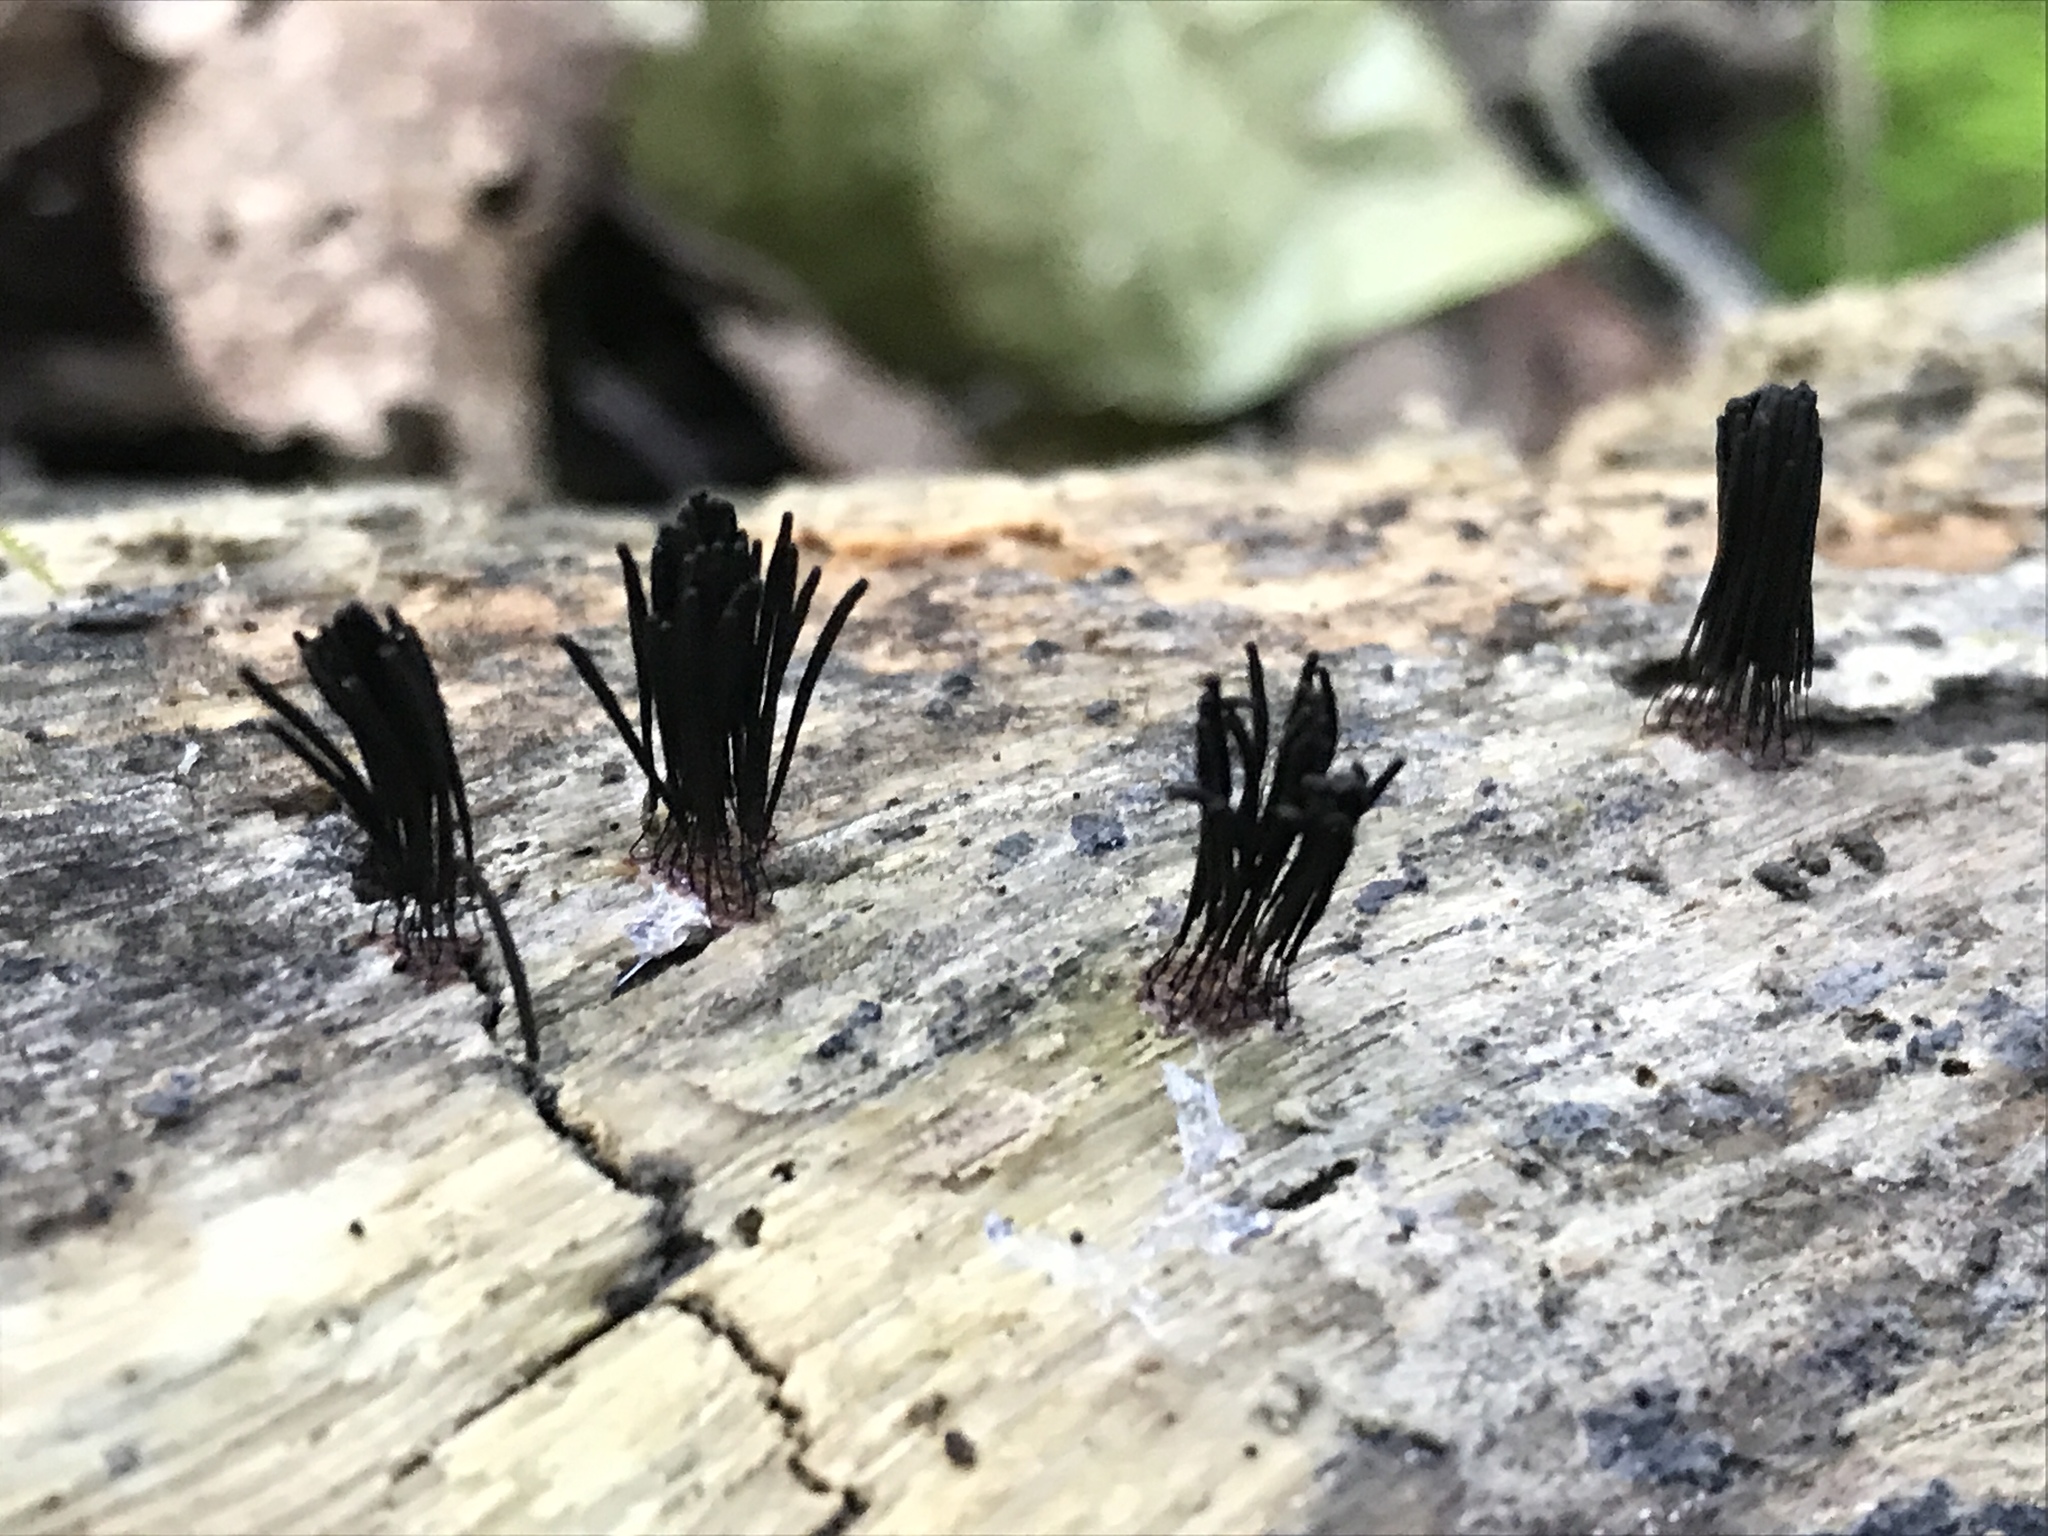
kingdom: Protozoa
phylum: Mycetozoa
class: Myxomycetes
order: Stemonitidales
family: Stemonitidaceae
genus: Stemonitis
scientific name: Stemonitis splendens
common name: Chocolate tube slime
